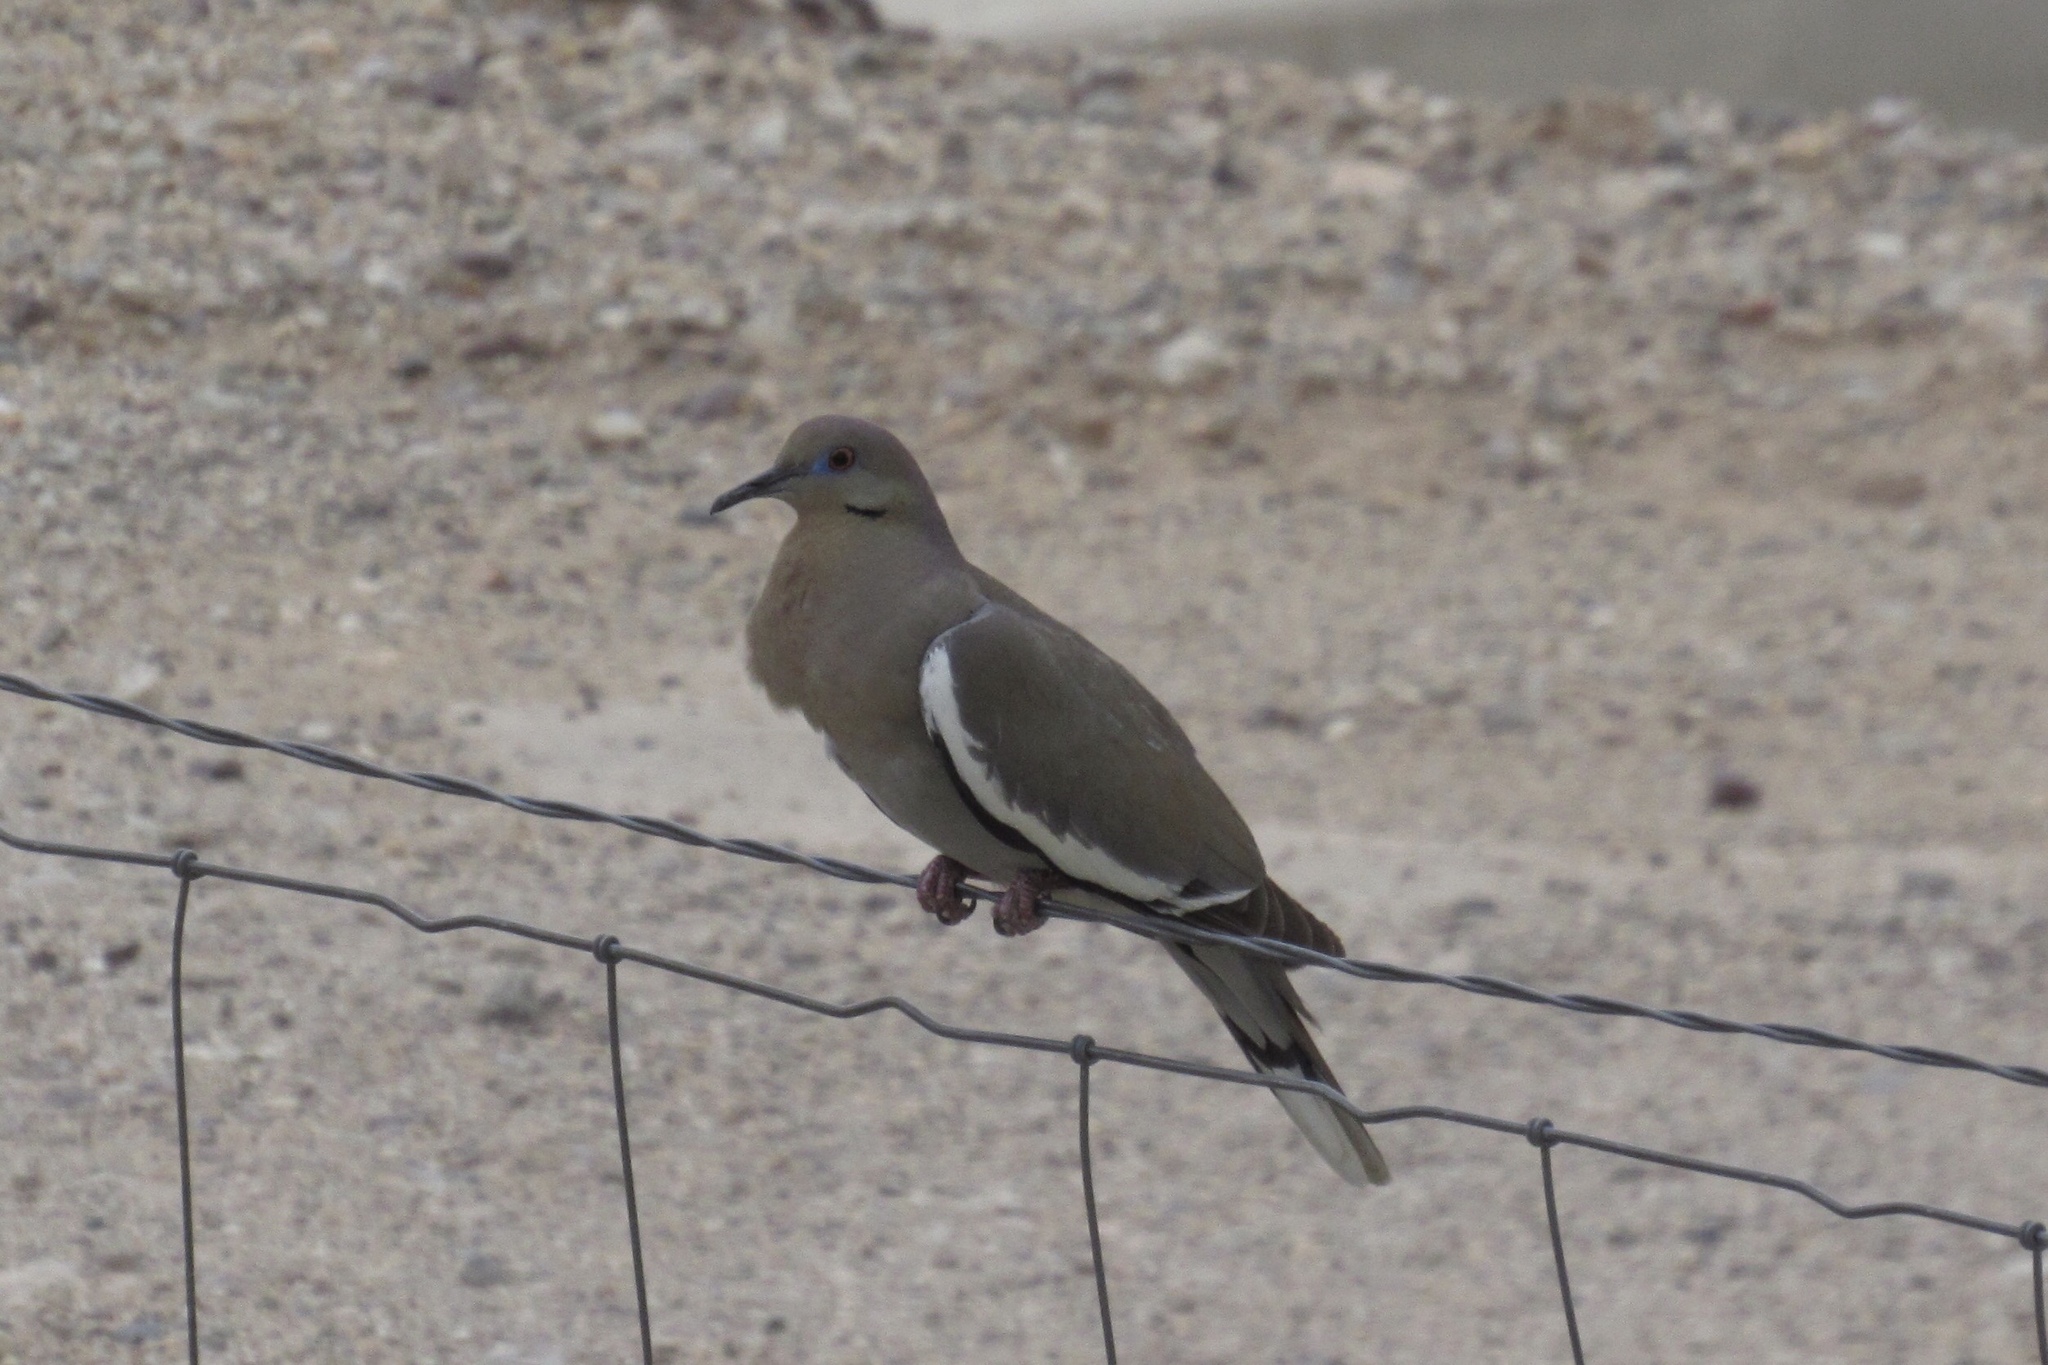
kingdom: Animalia
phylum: Chordata
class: Aves
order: Columbiformes
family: Columbidae
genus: Zenaida
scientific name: Zenaida asiatica
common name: White-winged dove
